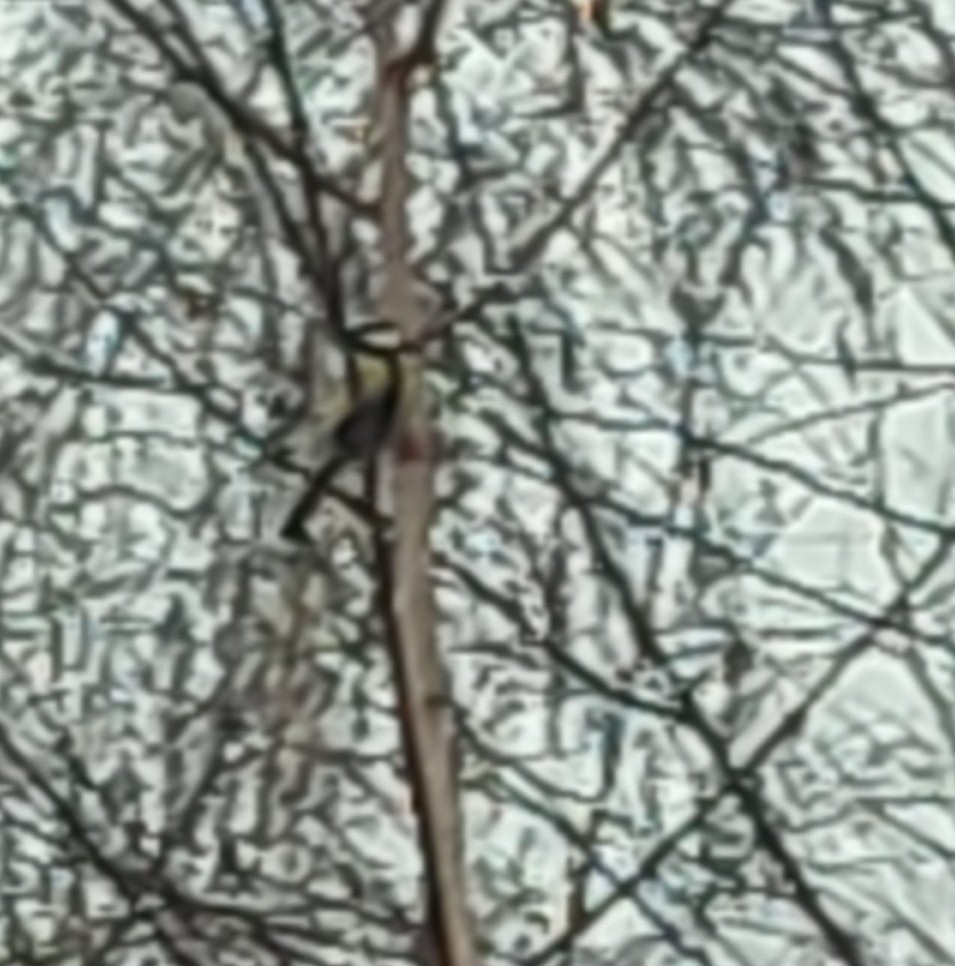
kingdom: Animalia
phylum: Chordata
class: Aves
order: Passeriformes
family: Paridae
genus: Parus
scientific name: Parus major
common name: Great tit
